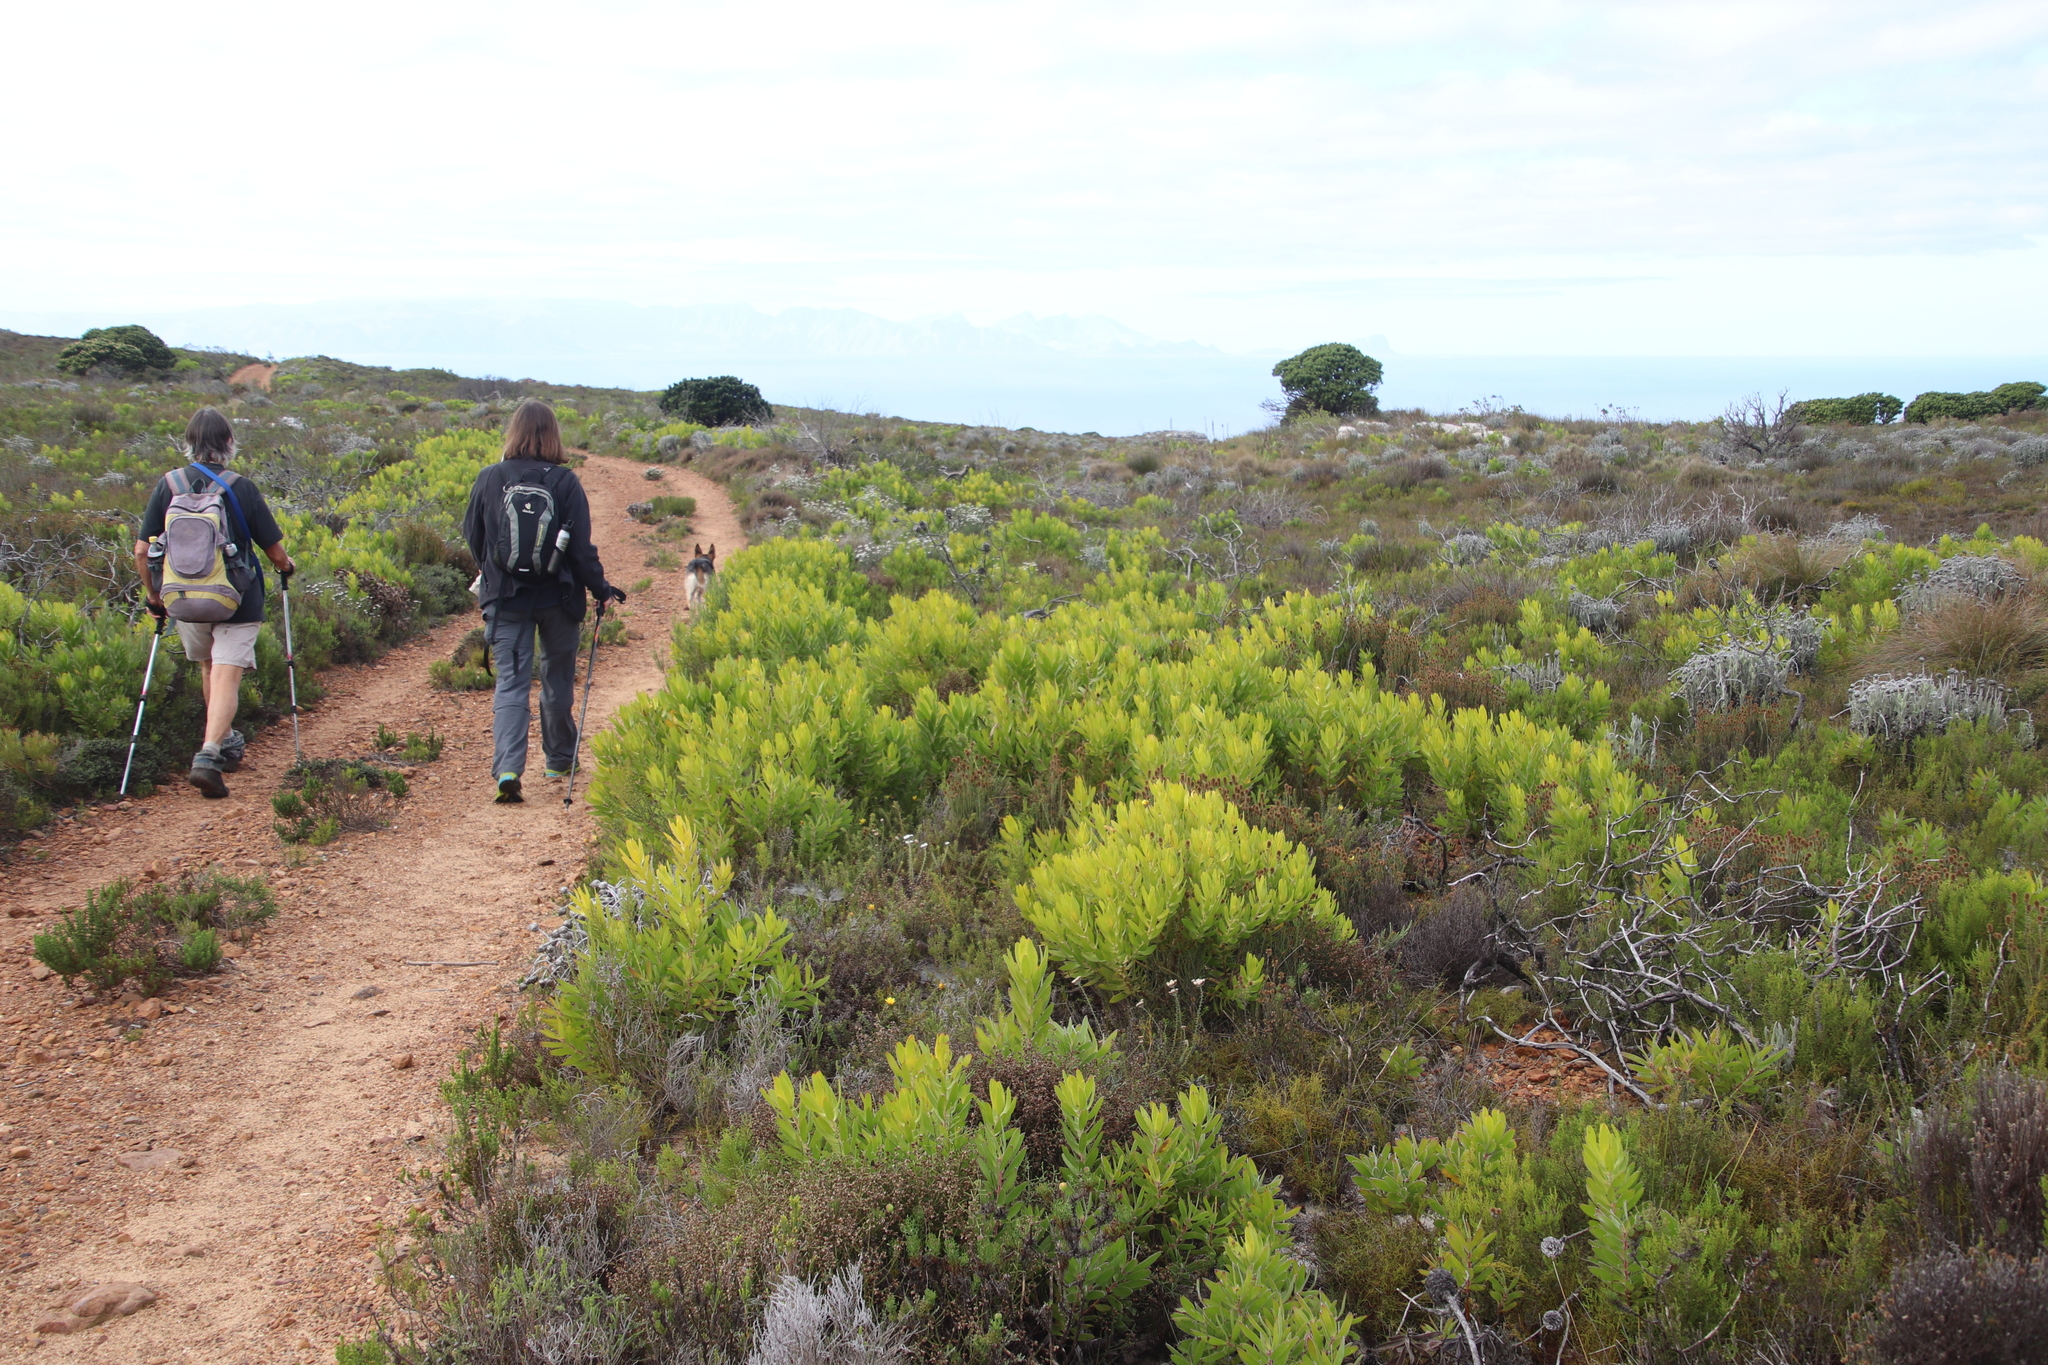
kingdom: Plantae
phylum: Tracheophyta
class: Magnoliopsida
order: Proteales
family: Proteaceae
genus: Leucadendron
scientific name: Leucadendron laureolum
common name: Golden sunshinebush
